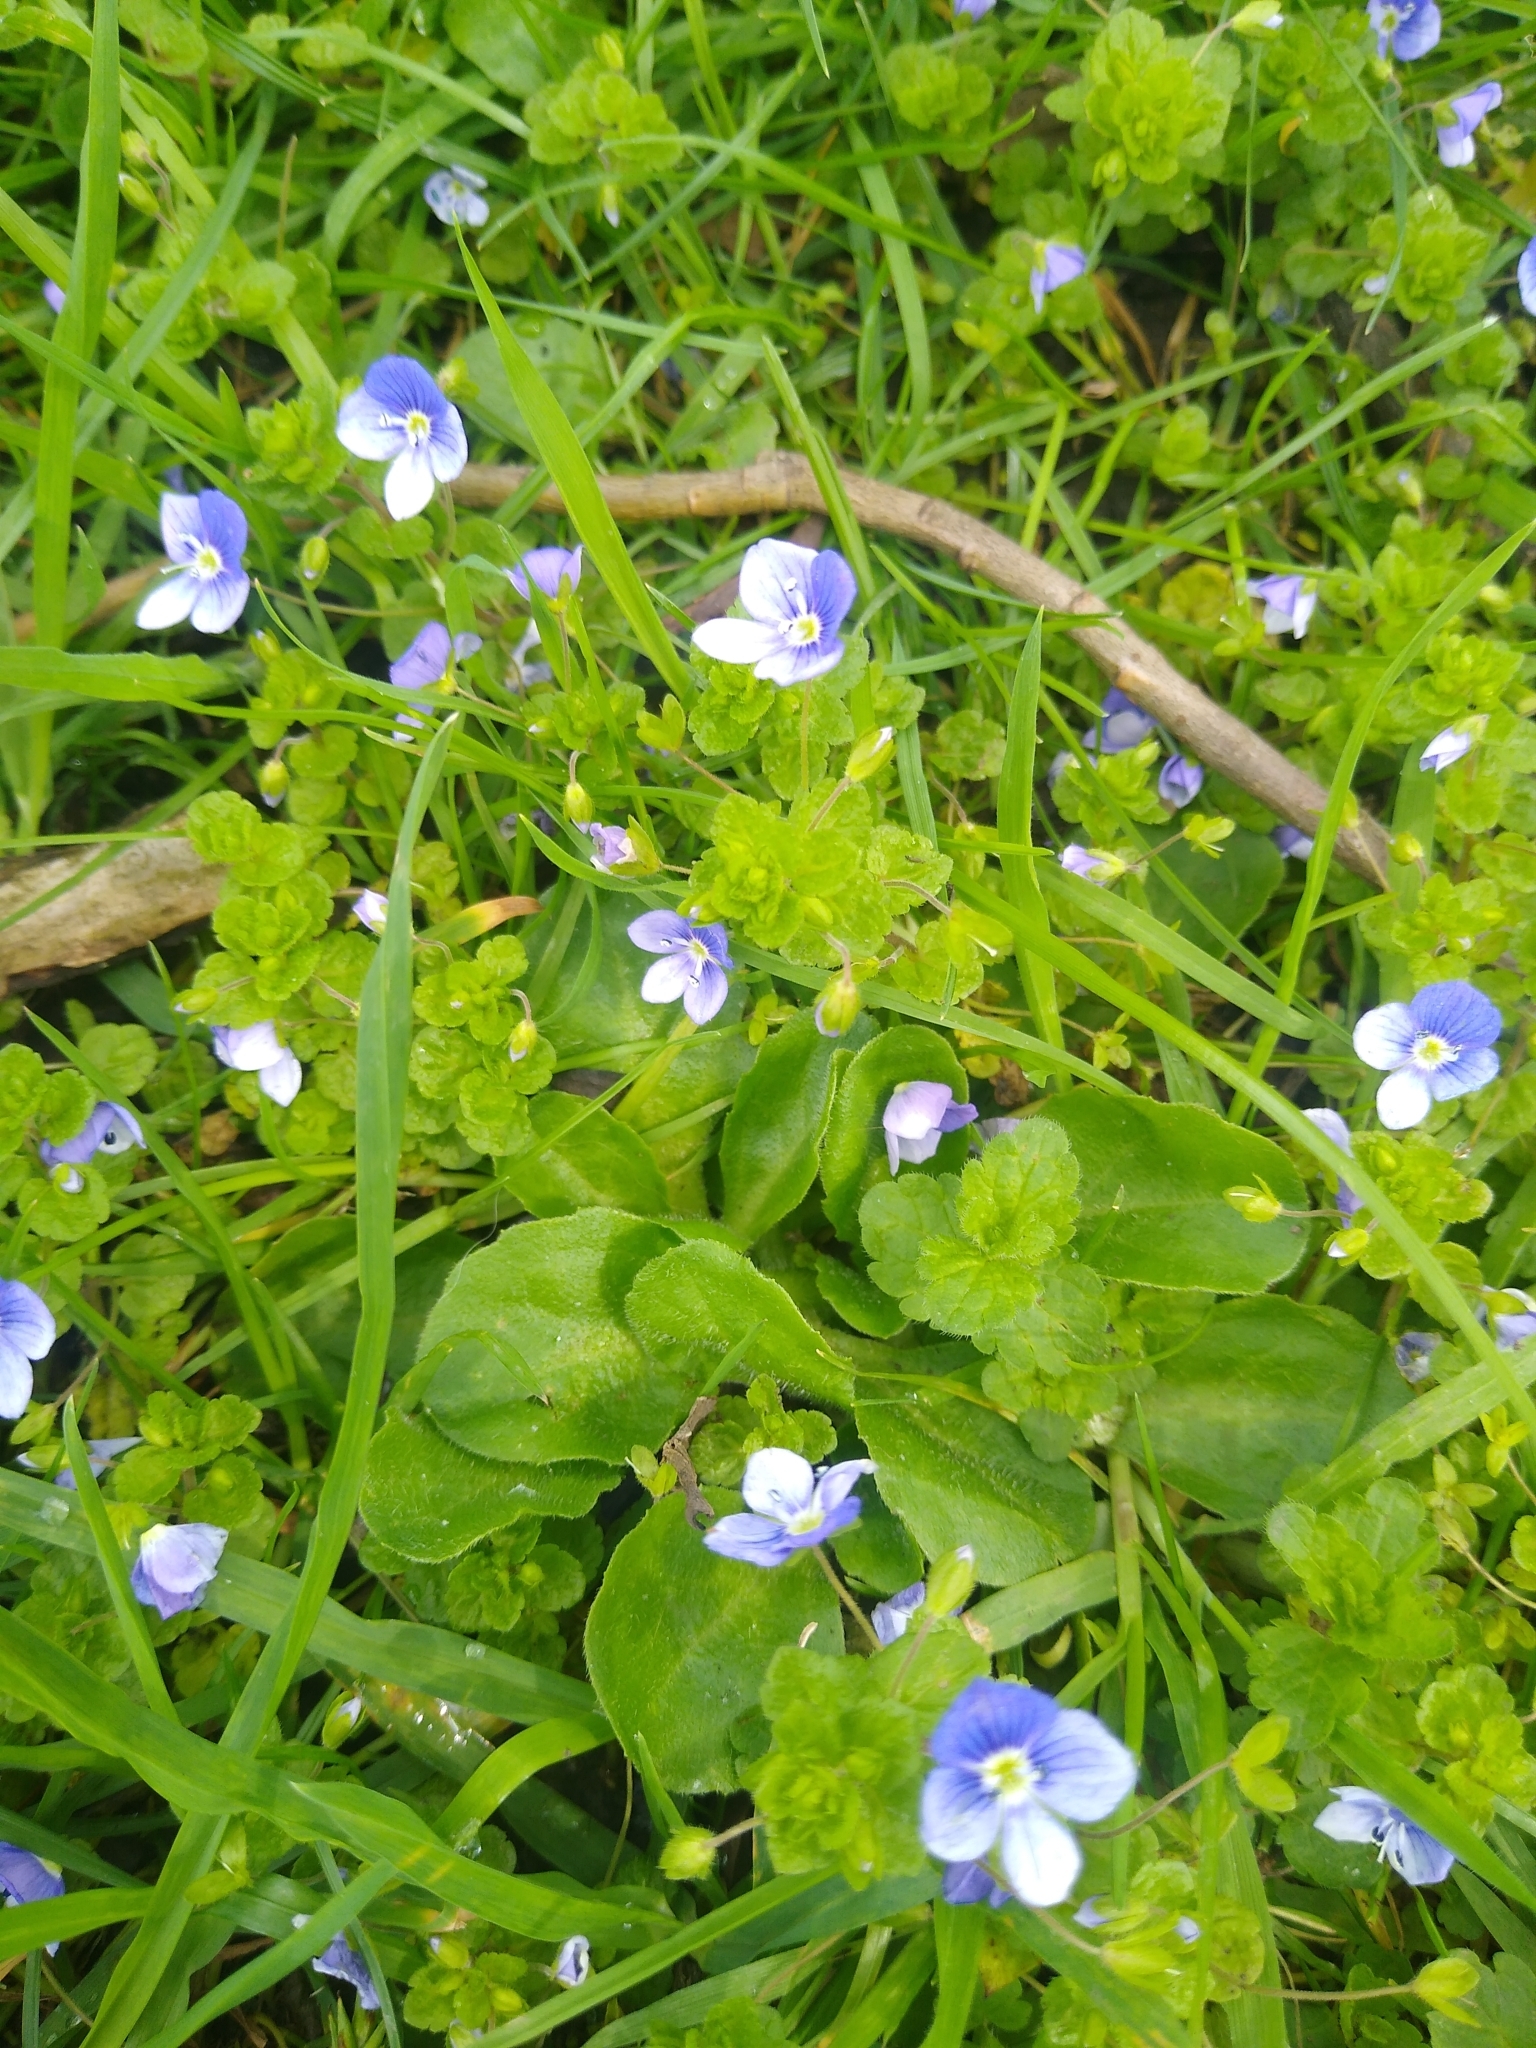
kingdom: Plantae
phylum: Tracheophyta
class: Magnoliopsida
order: Lamiales
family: Plantaginaceae
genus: Veronica
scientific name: Veronica persica
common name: Common field-speedwell
